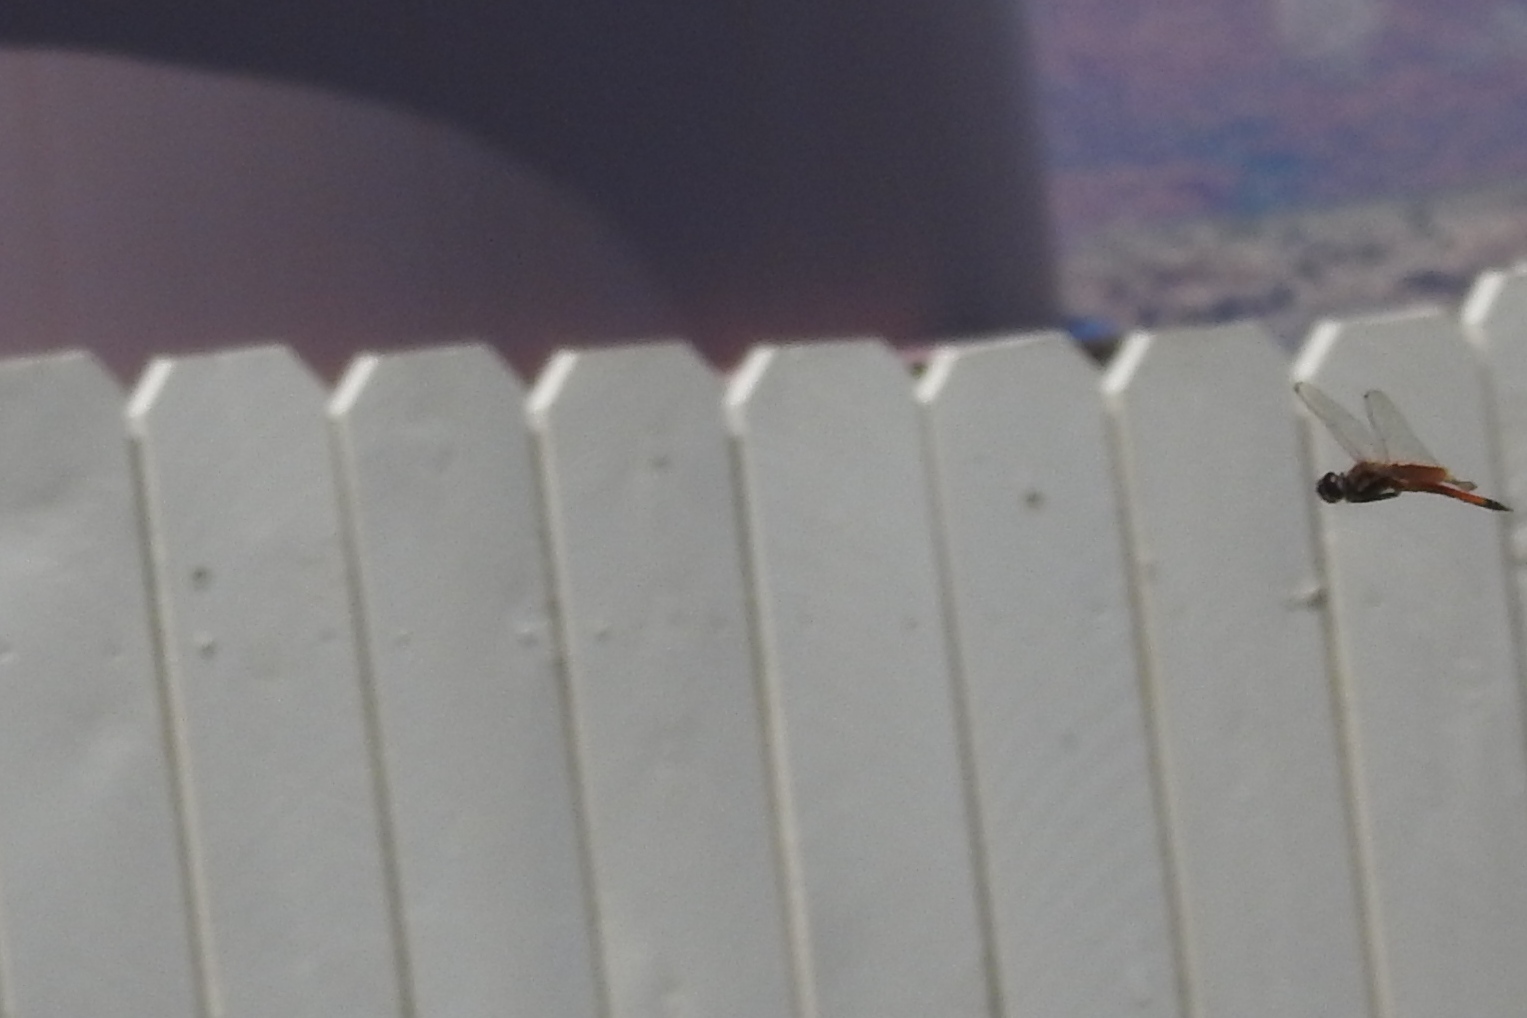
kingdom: Animalia
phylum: Arthropoda
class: Insecta
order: Odonata
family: Libellulidae
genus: Tramea
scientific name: Tramea darwini
